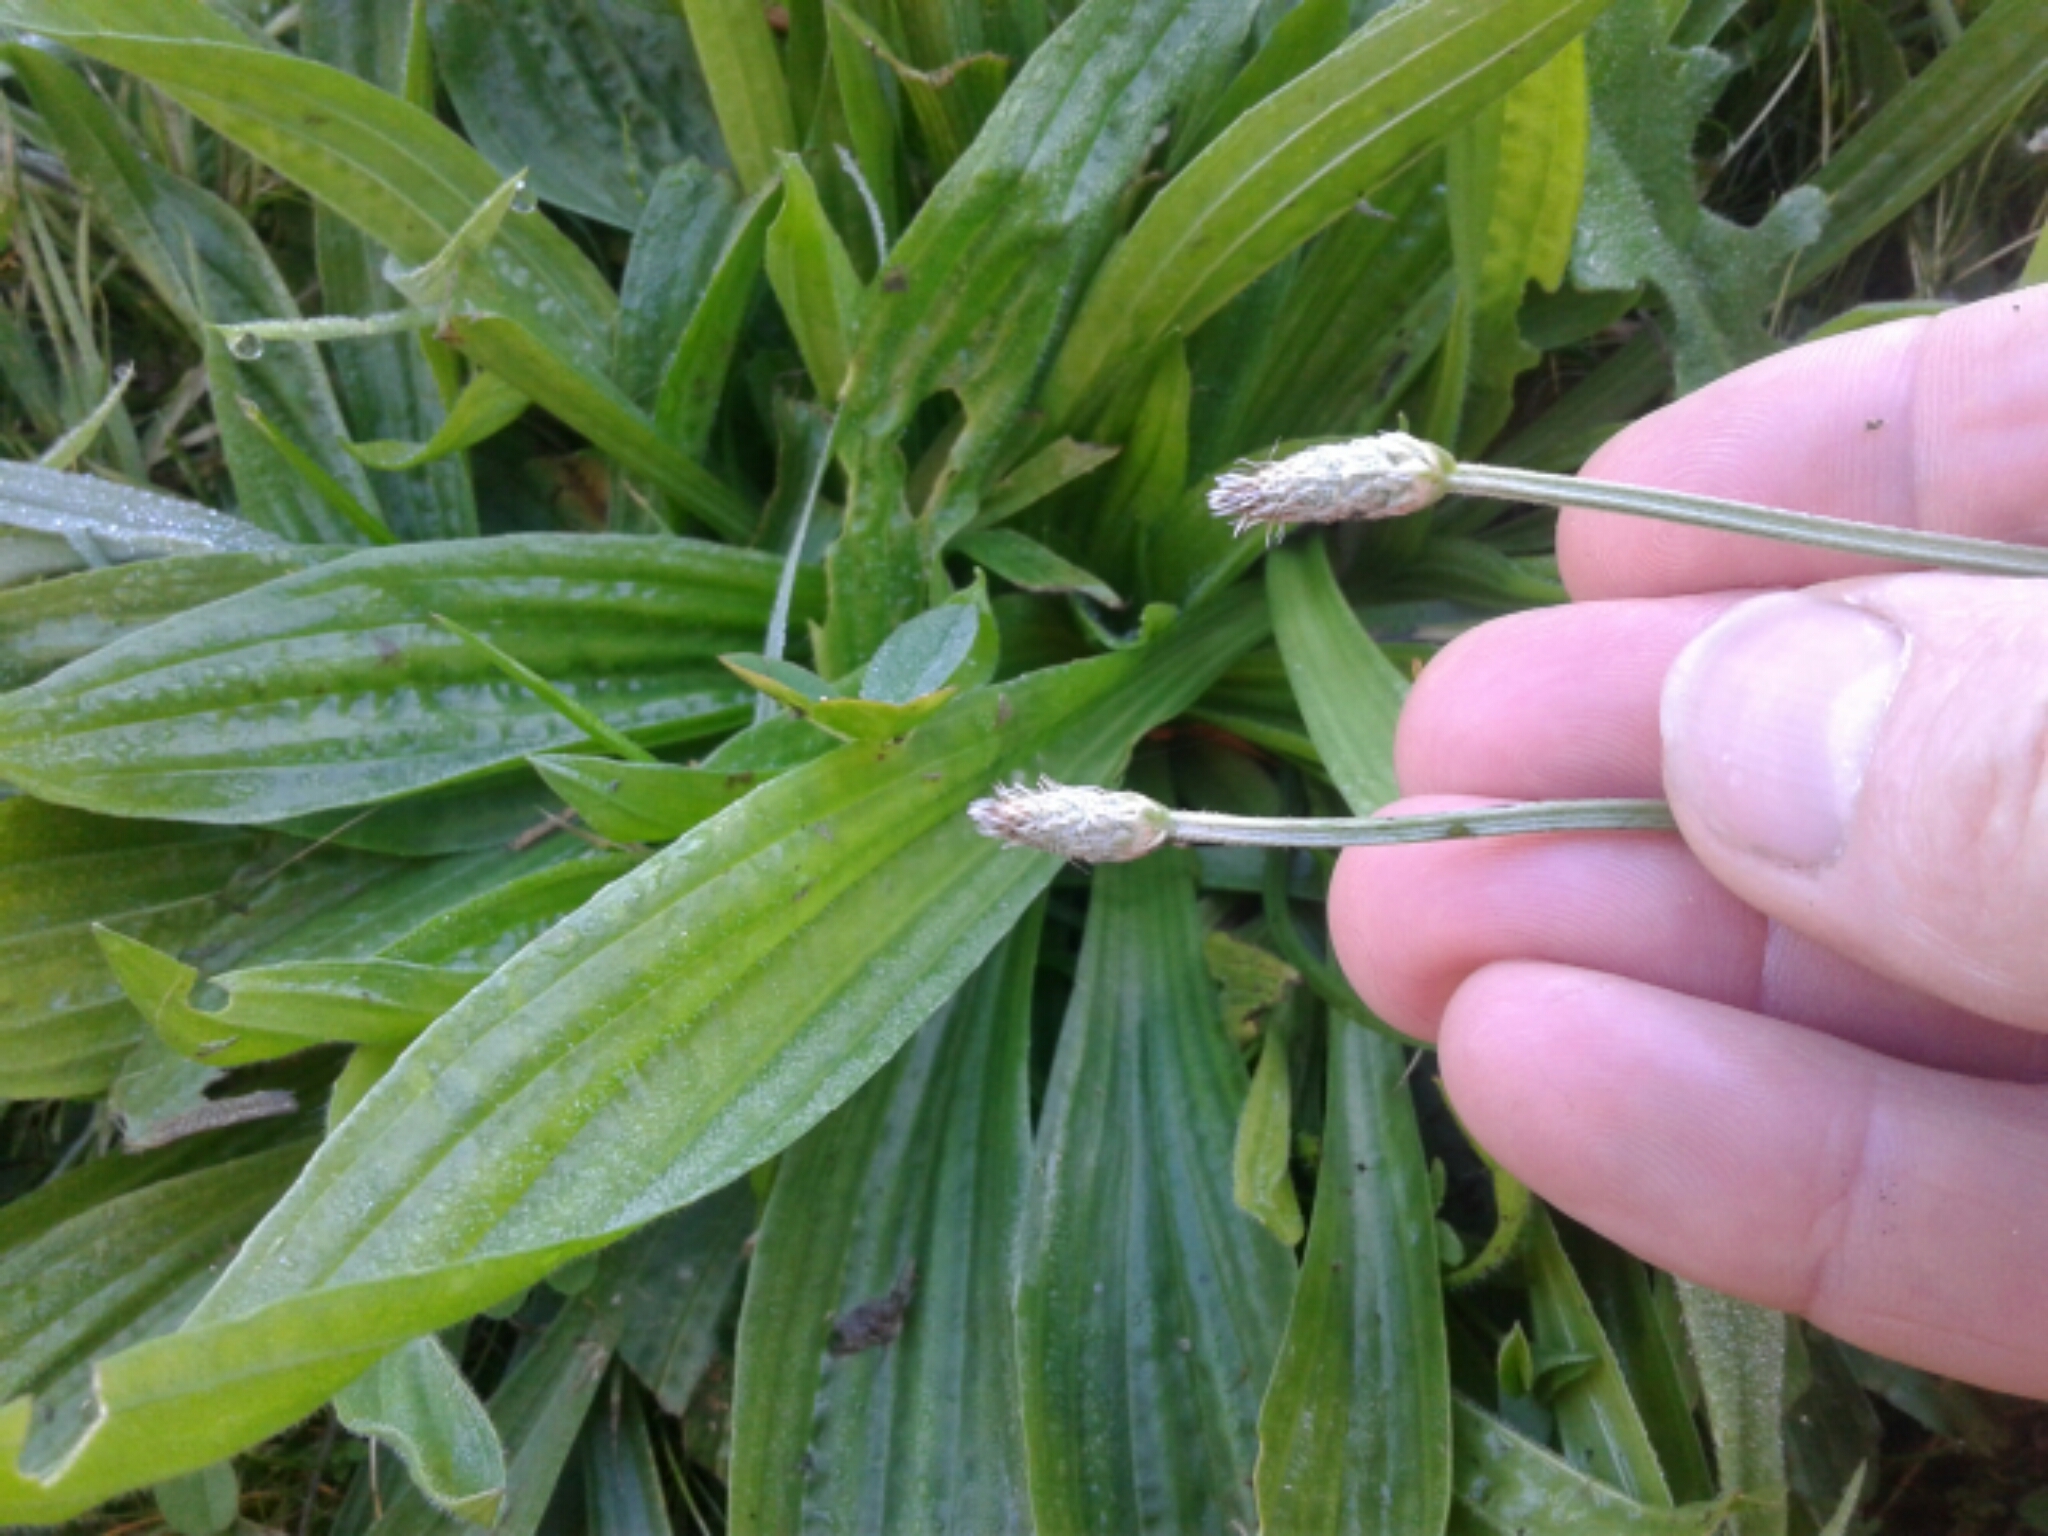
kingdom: Plantae
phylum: Tracheophyta
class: Magnoliopsida
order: Lamiales
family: Plantaginaceae
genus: Plantago
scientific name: Plantago lanceolata
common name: Ribwort plantain
